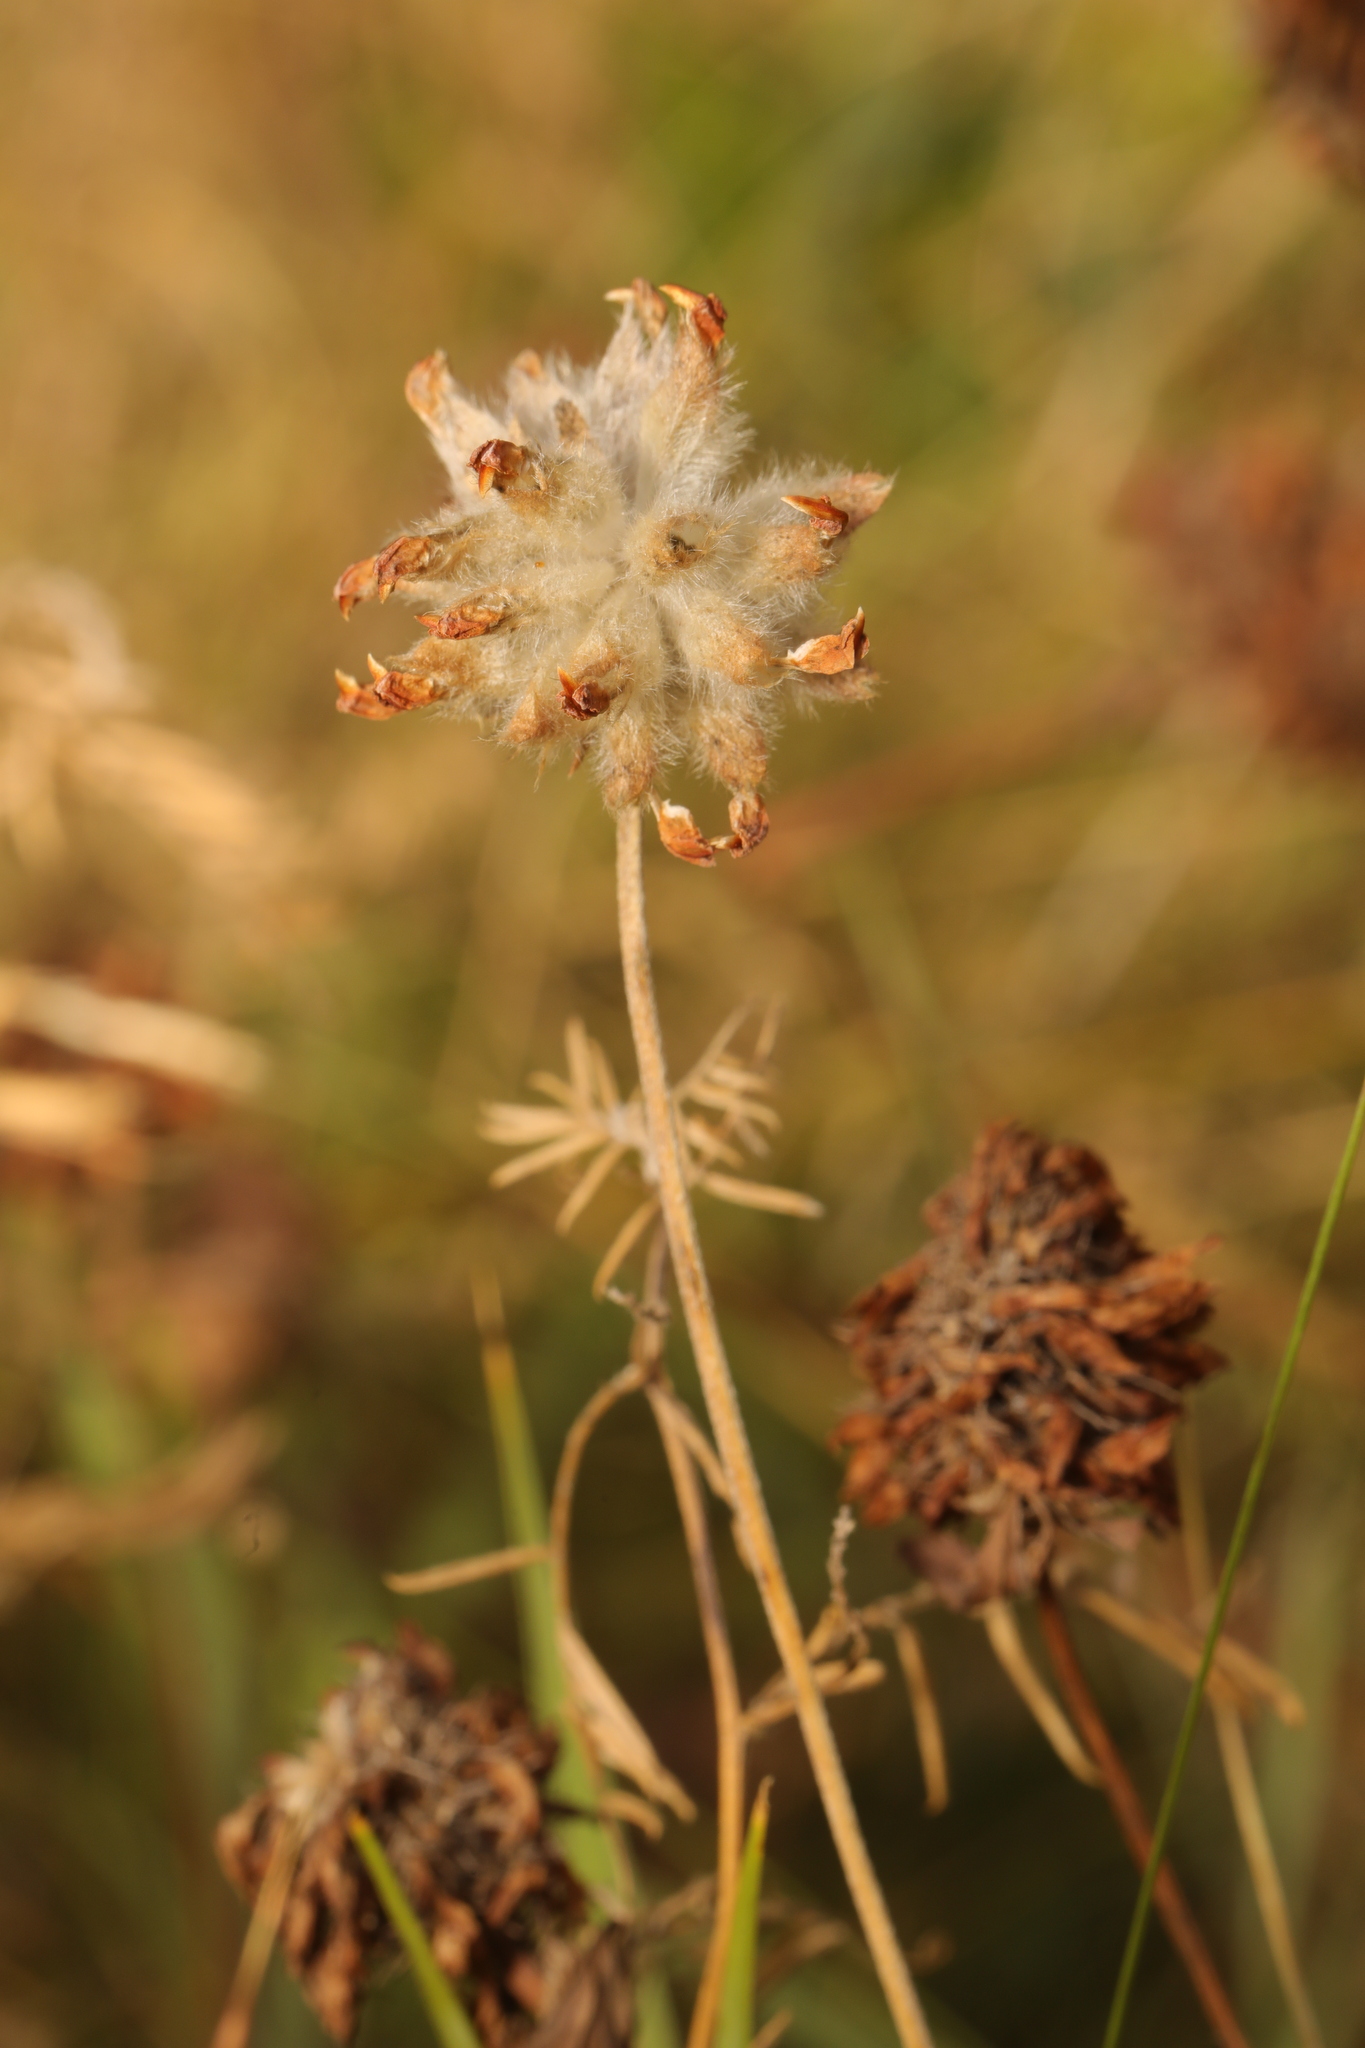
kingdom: Plantae
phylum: Tracheophyta
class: Magnoliopsida
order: Fabales
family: Fabaceae
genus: Anthyllis
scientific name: Anthyllis vulneraria
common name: Kidney vetch
